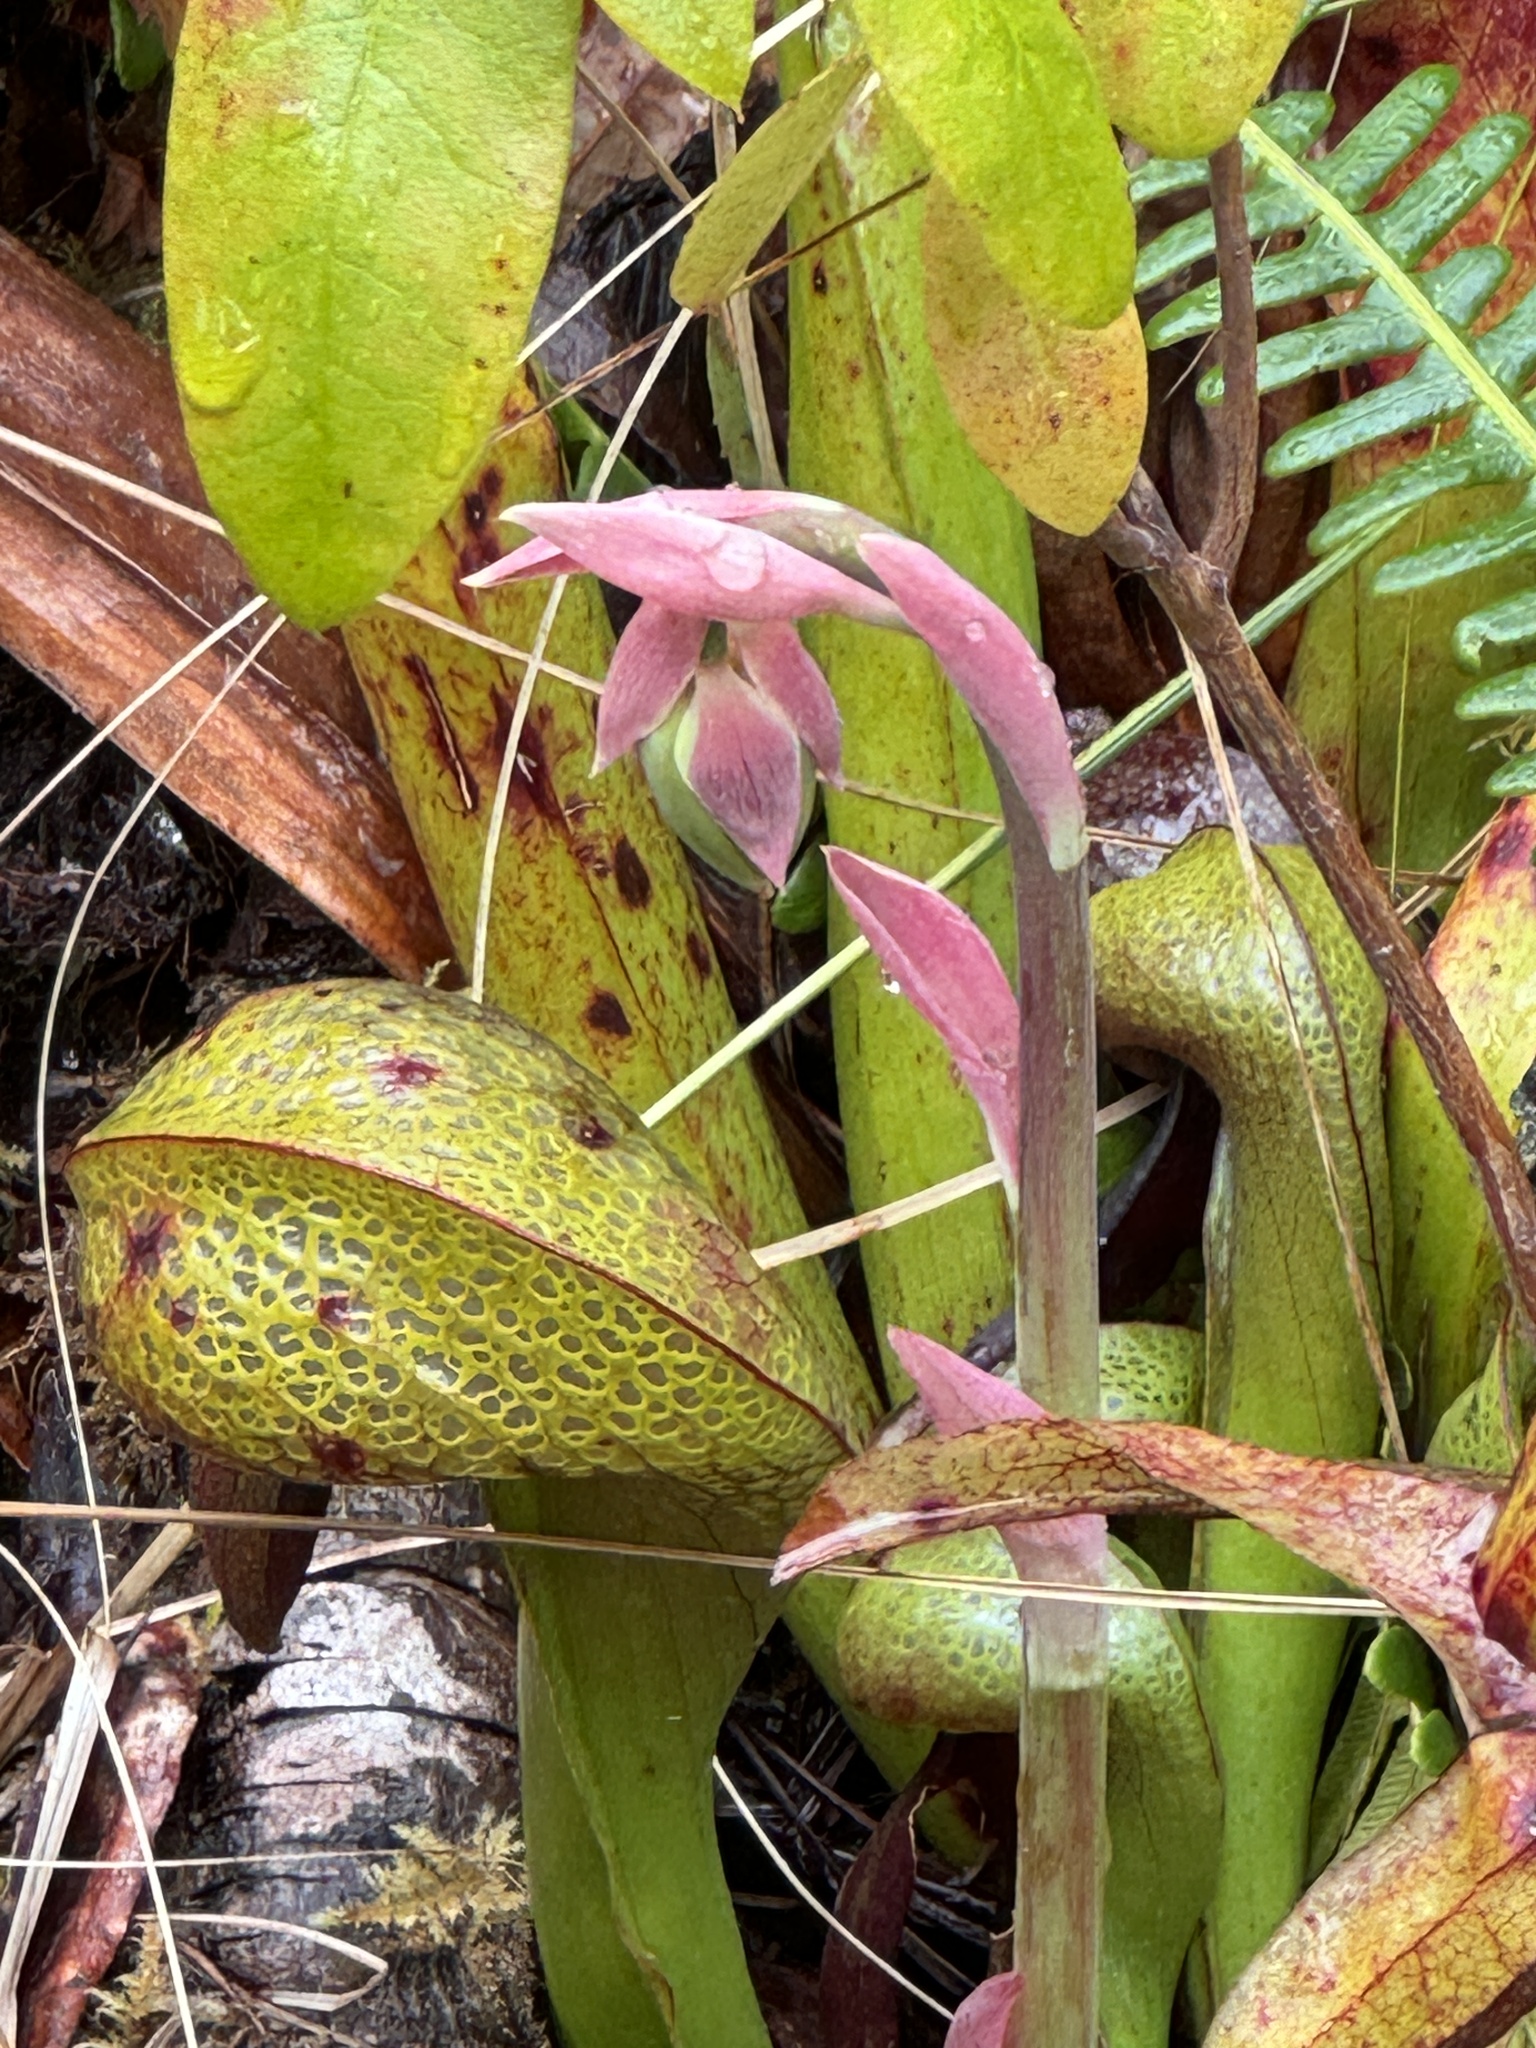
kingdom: Plantae
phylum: Tracheophyta
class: Magnoliopsida
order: Ericales
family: Sarraceniaceae
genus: Darlingtonia
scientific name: Darlingtonia californica
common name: California pitcher plant
